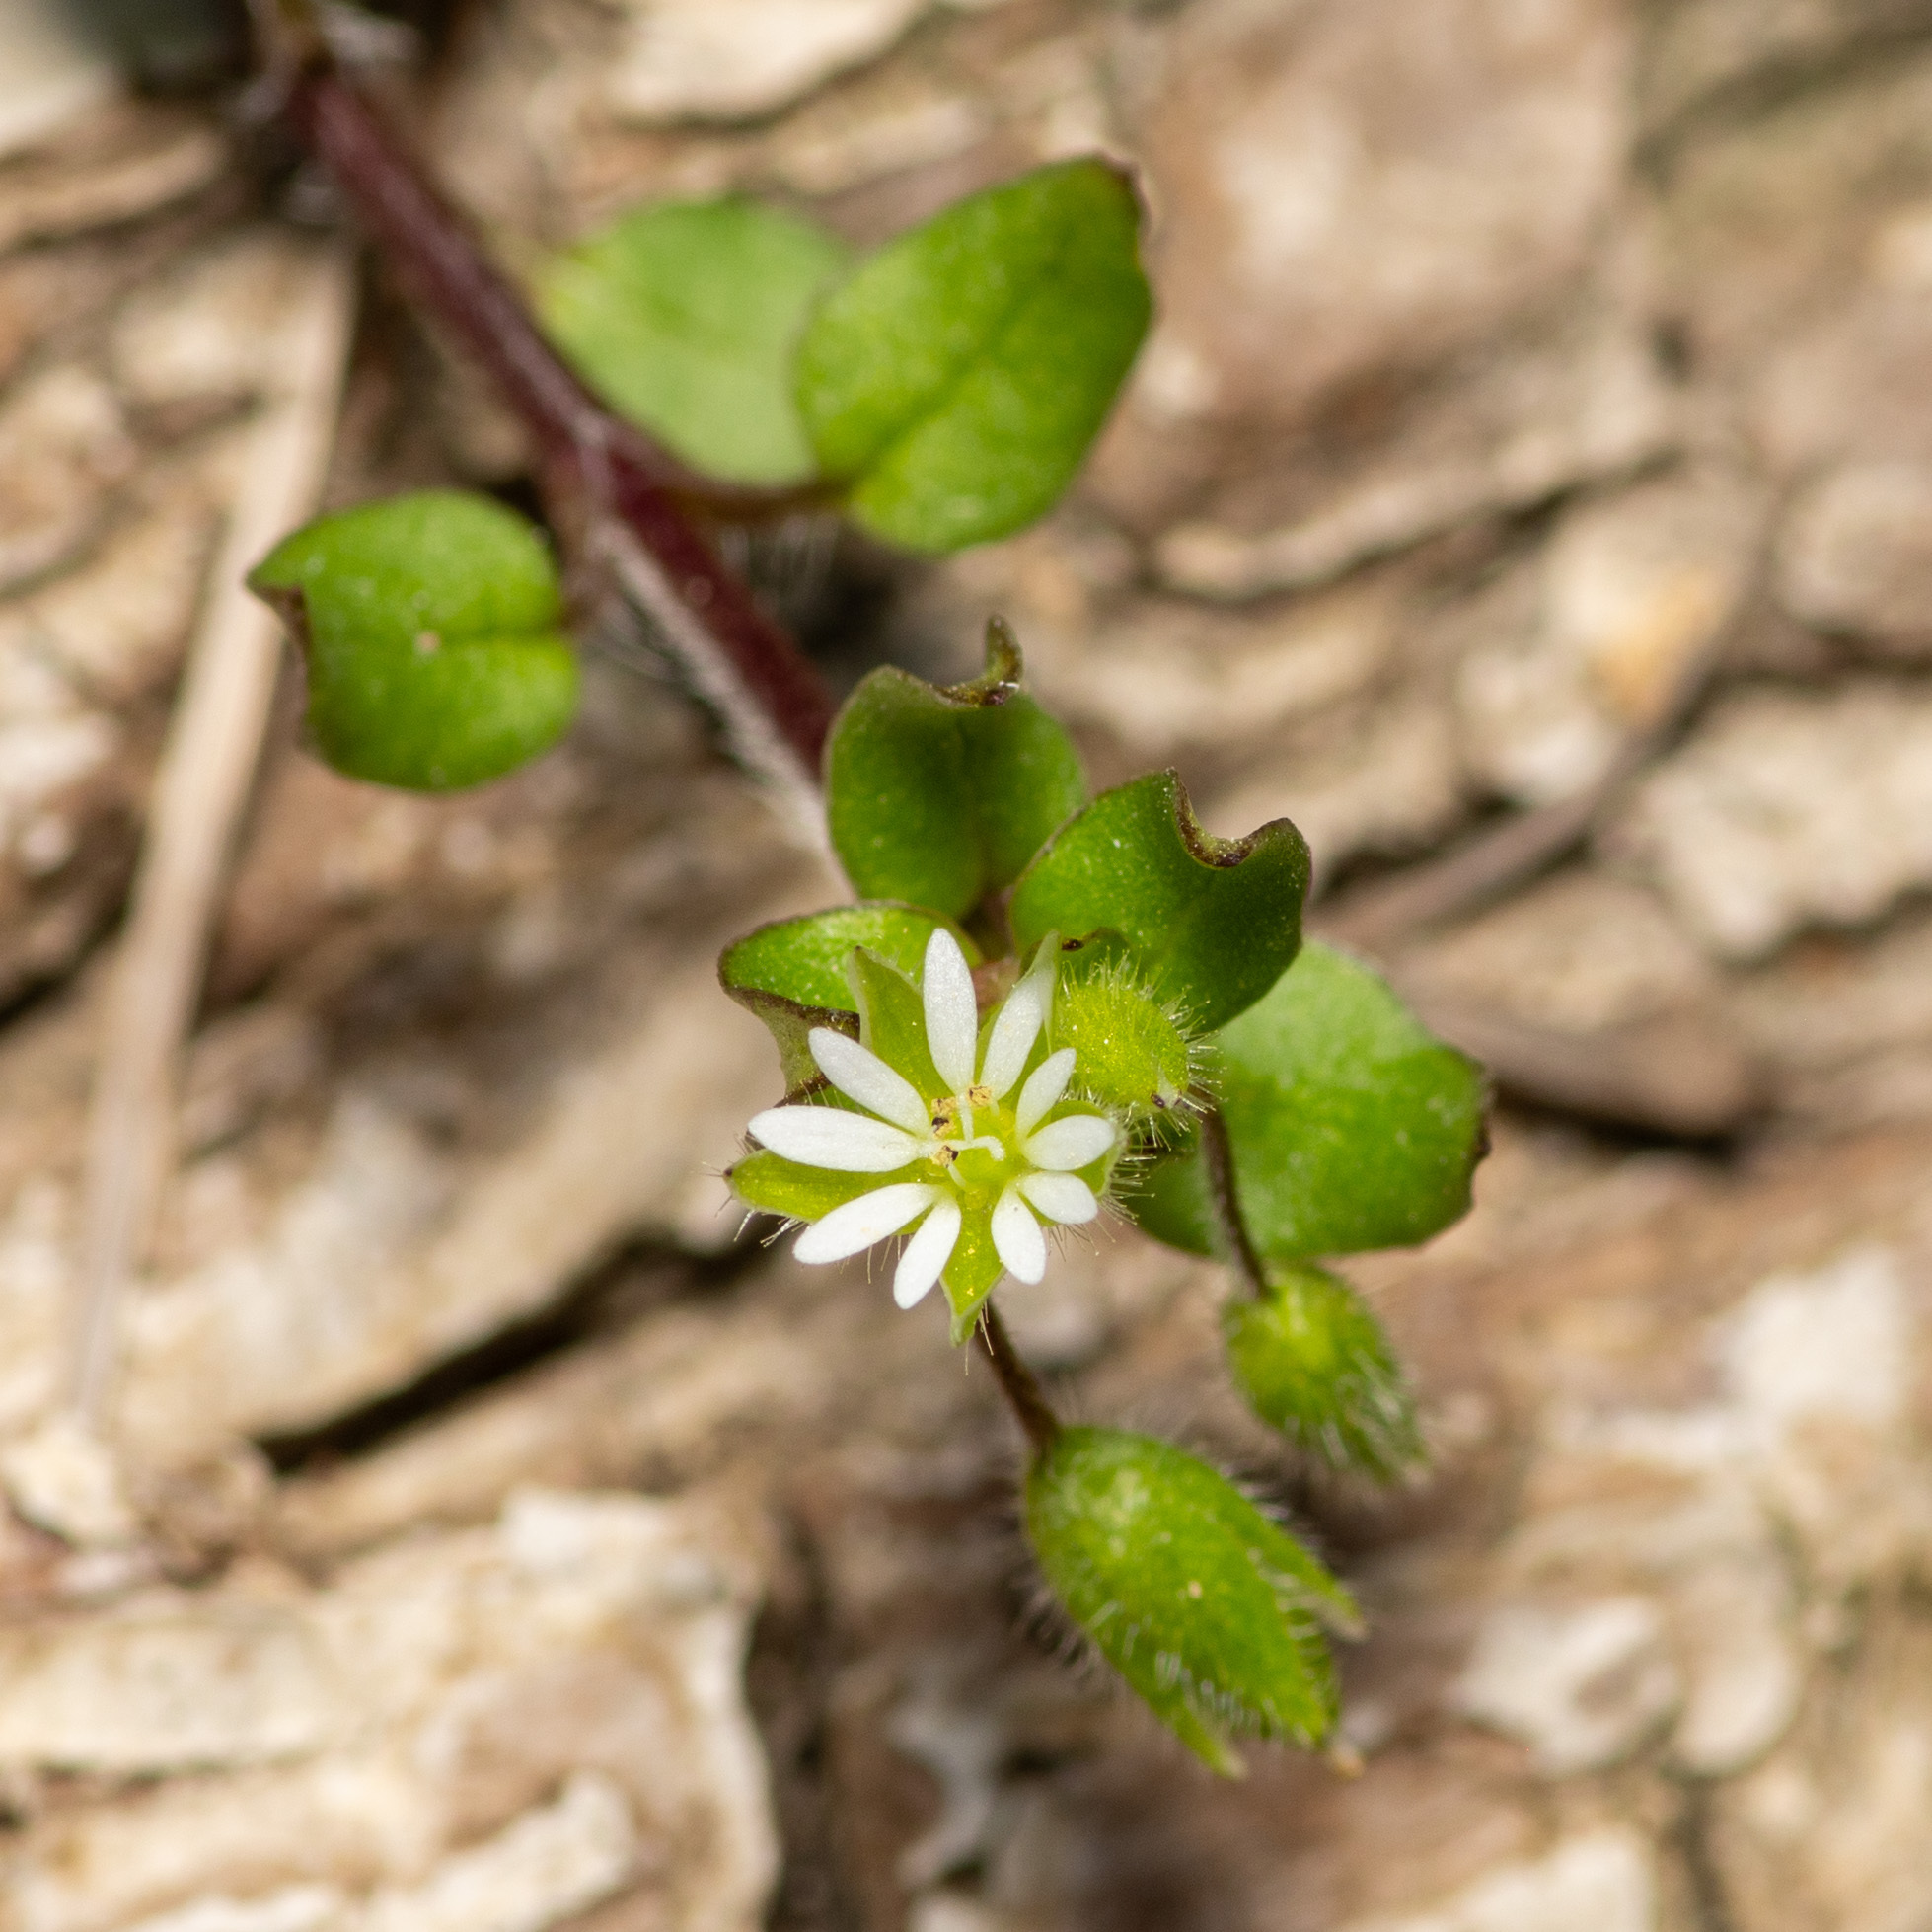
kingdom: Plantae
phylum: Tracheophyta
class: Magnoliopsida
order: Caryophyllales
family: Caryophyllaceae
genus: Stellaria
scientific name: Stellaria media
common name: Common chickweed
